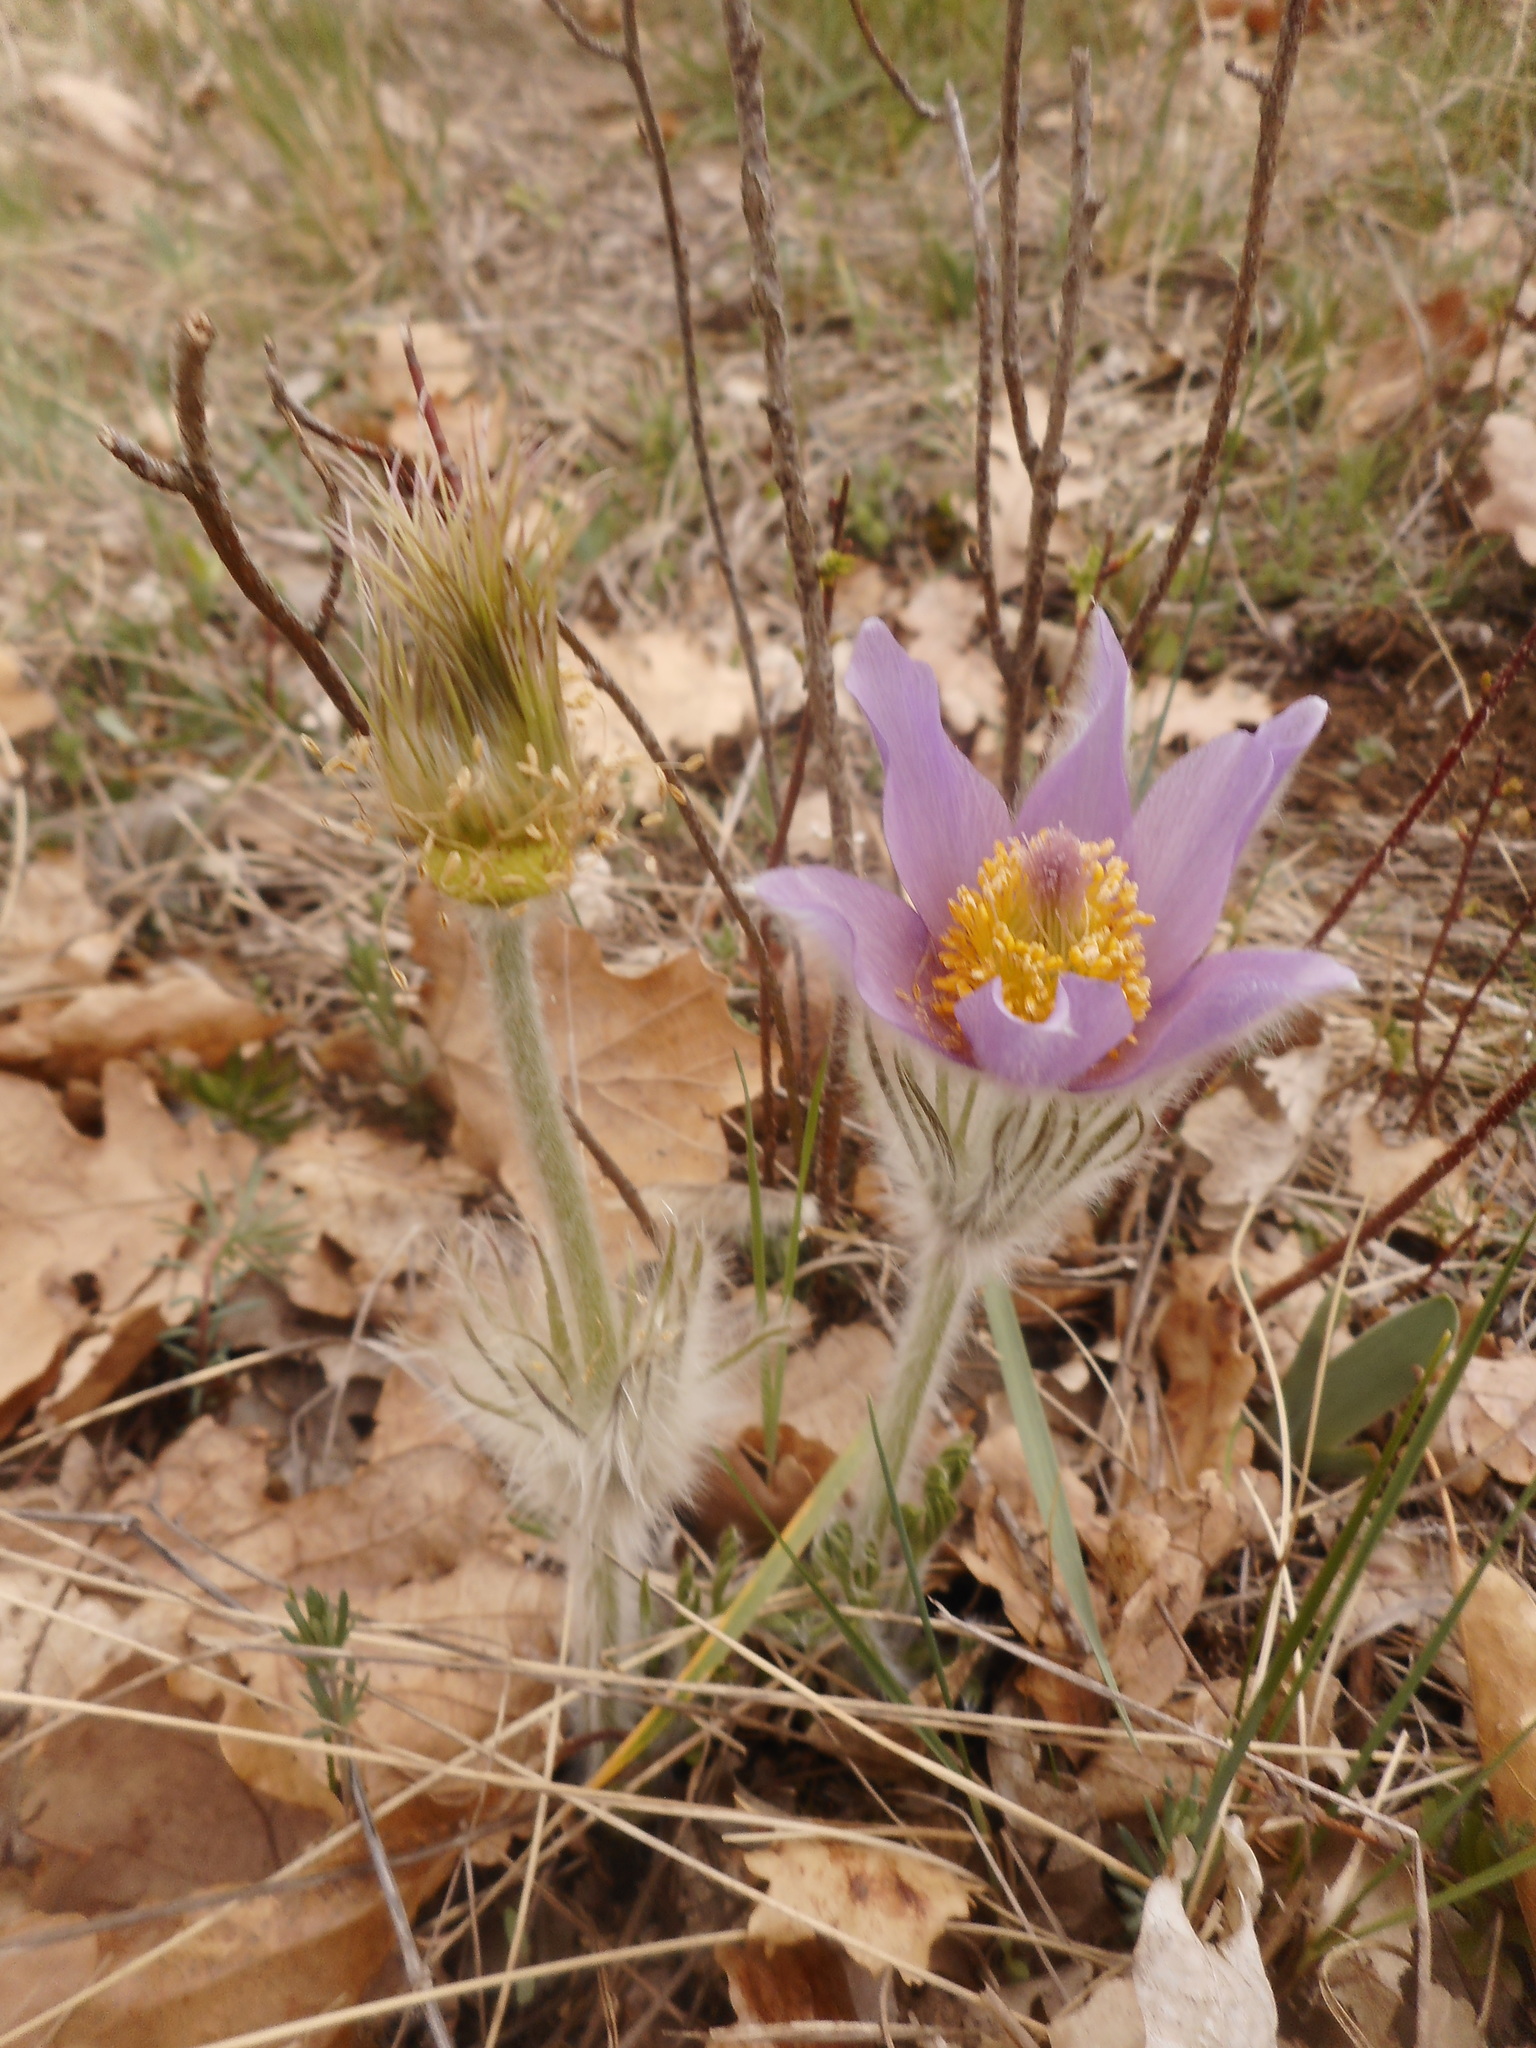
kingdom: Plantae
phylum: Tracheophyta
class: Magnoliopsida
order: Ranunculales
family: Ranunculaceae
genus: Pulsatilla
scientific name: Pulsatilla grandis
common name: Greater pasque flower
